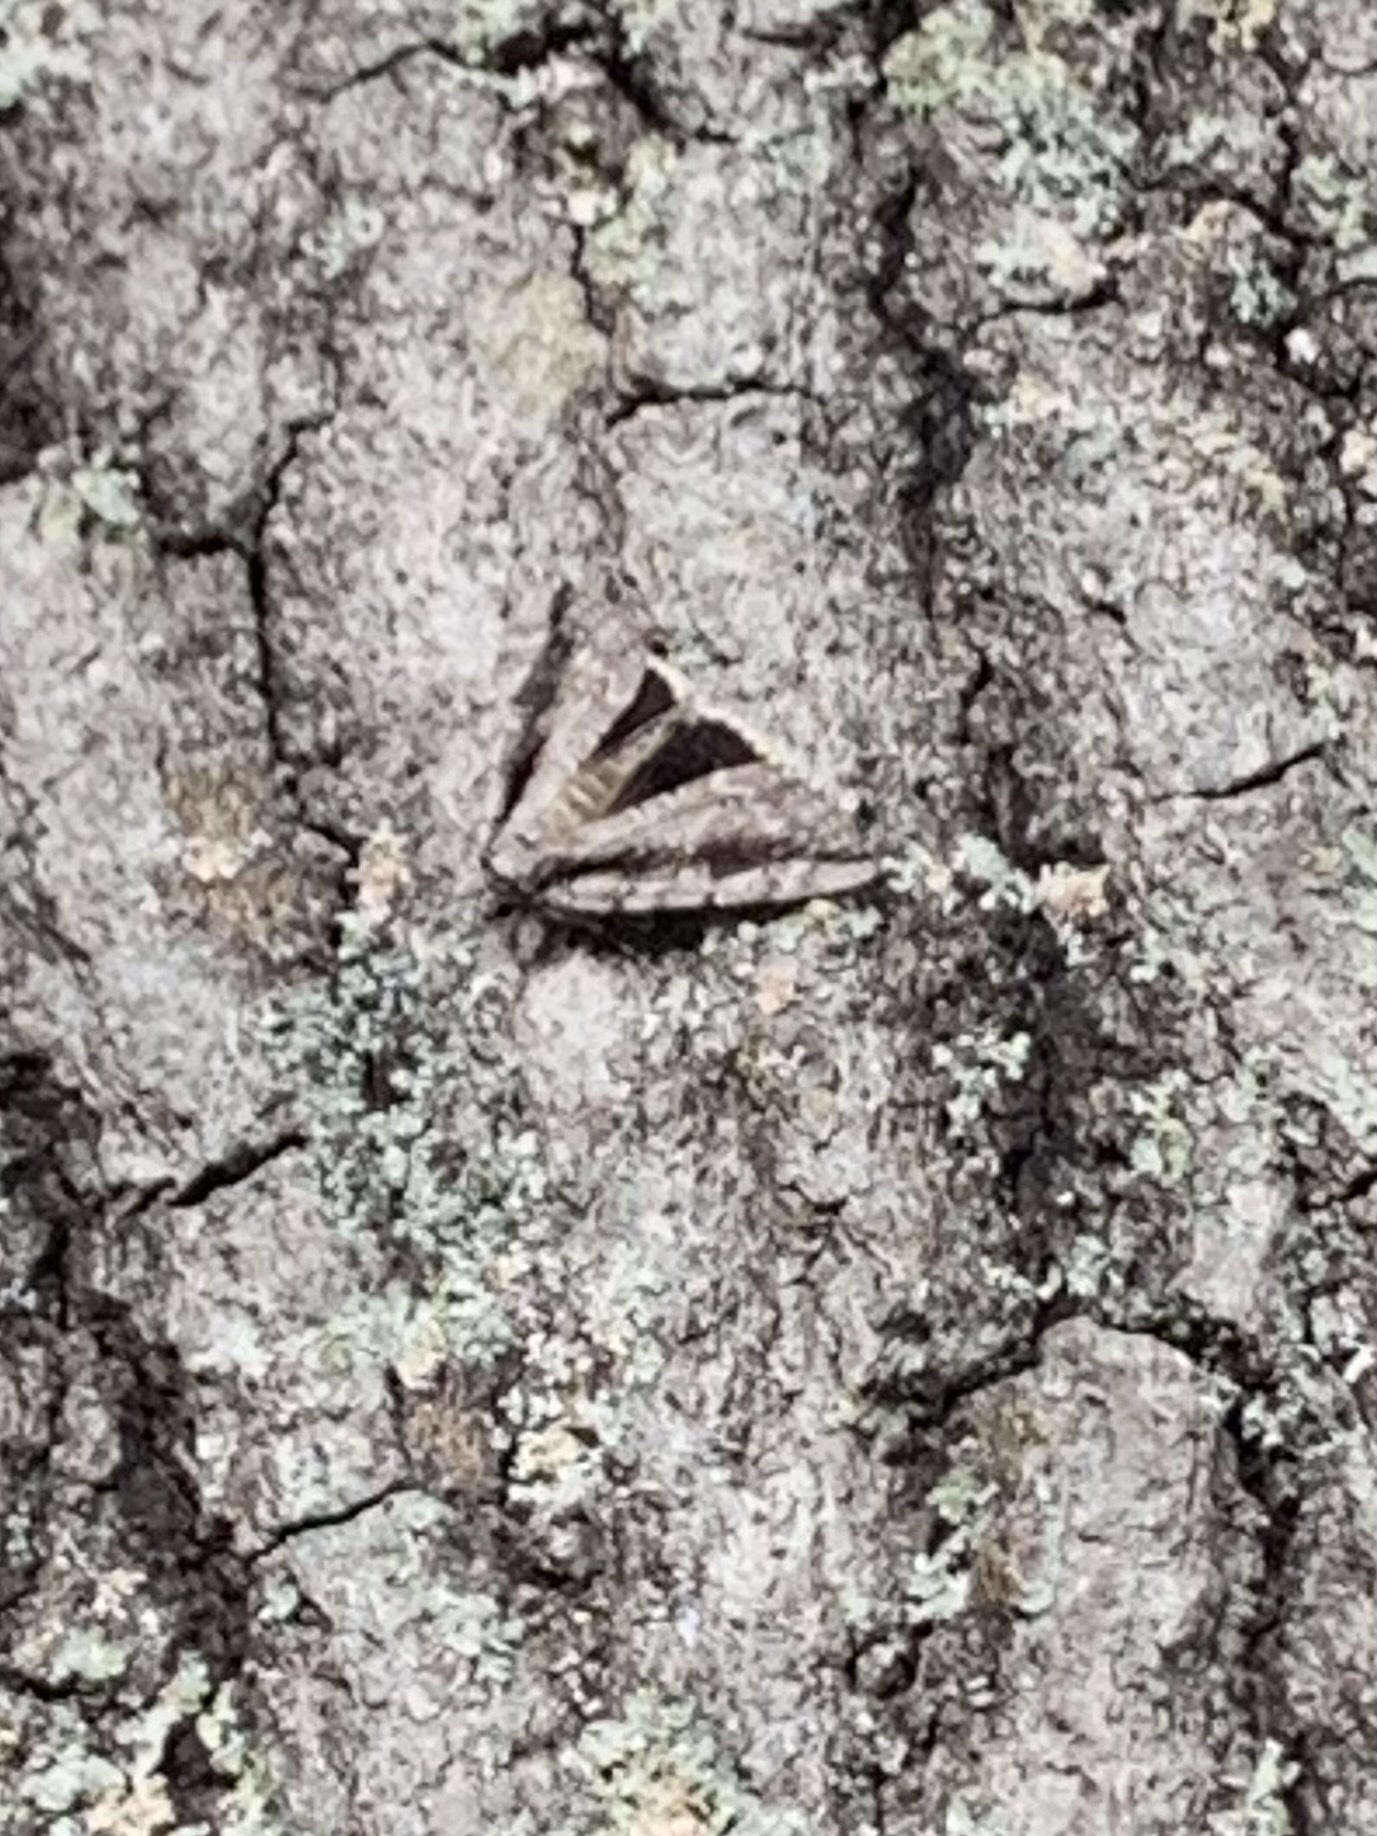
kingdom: Animalia
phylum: Arthropoda
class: Insecta
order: Lepidoptera
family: Erebidae
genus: Catocala
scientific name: Catocala robinsoni
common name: Robinson's underwing
